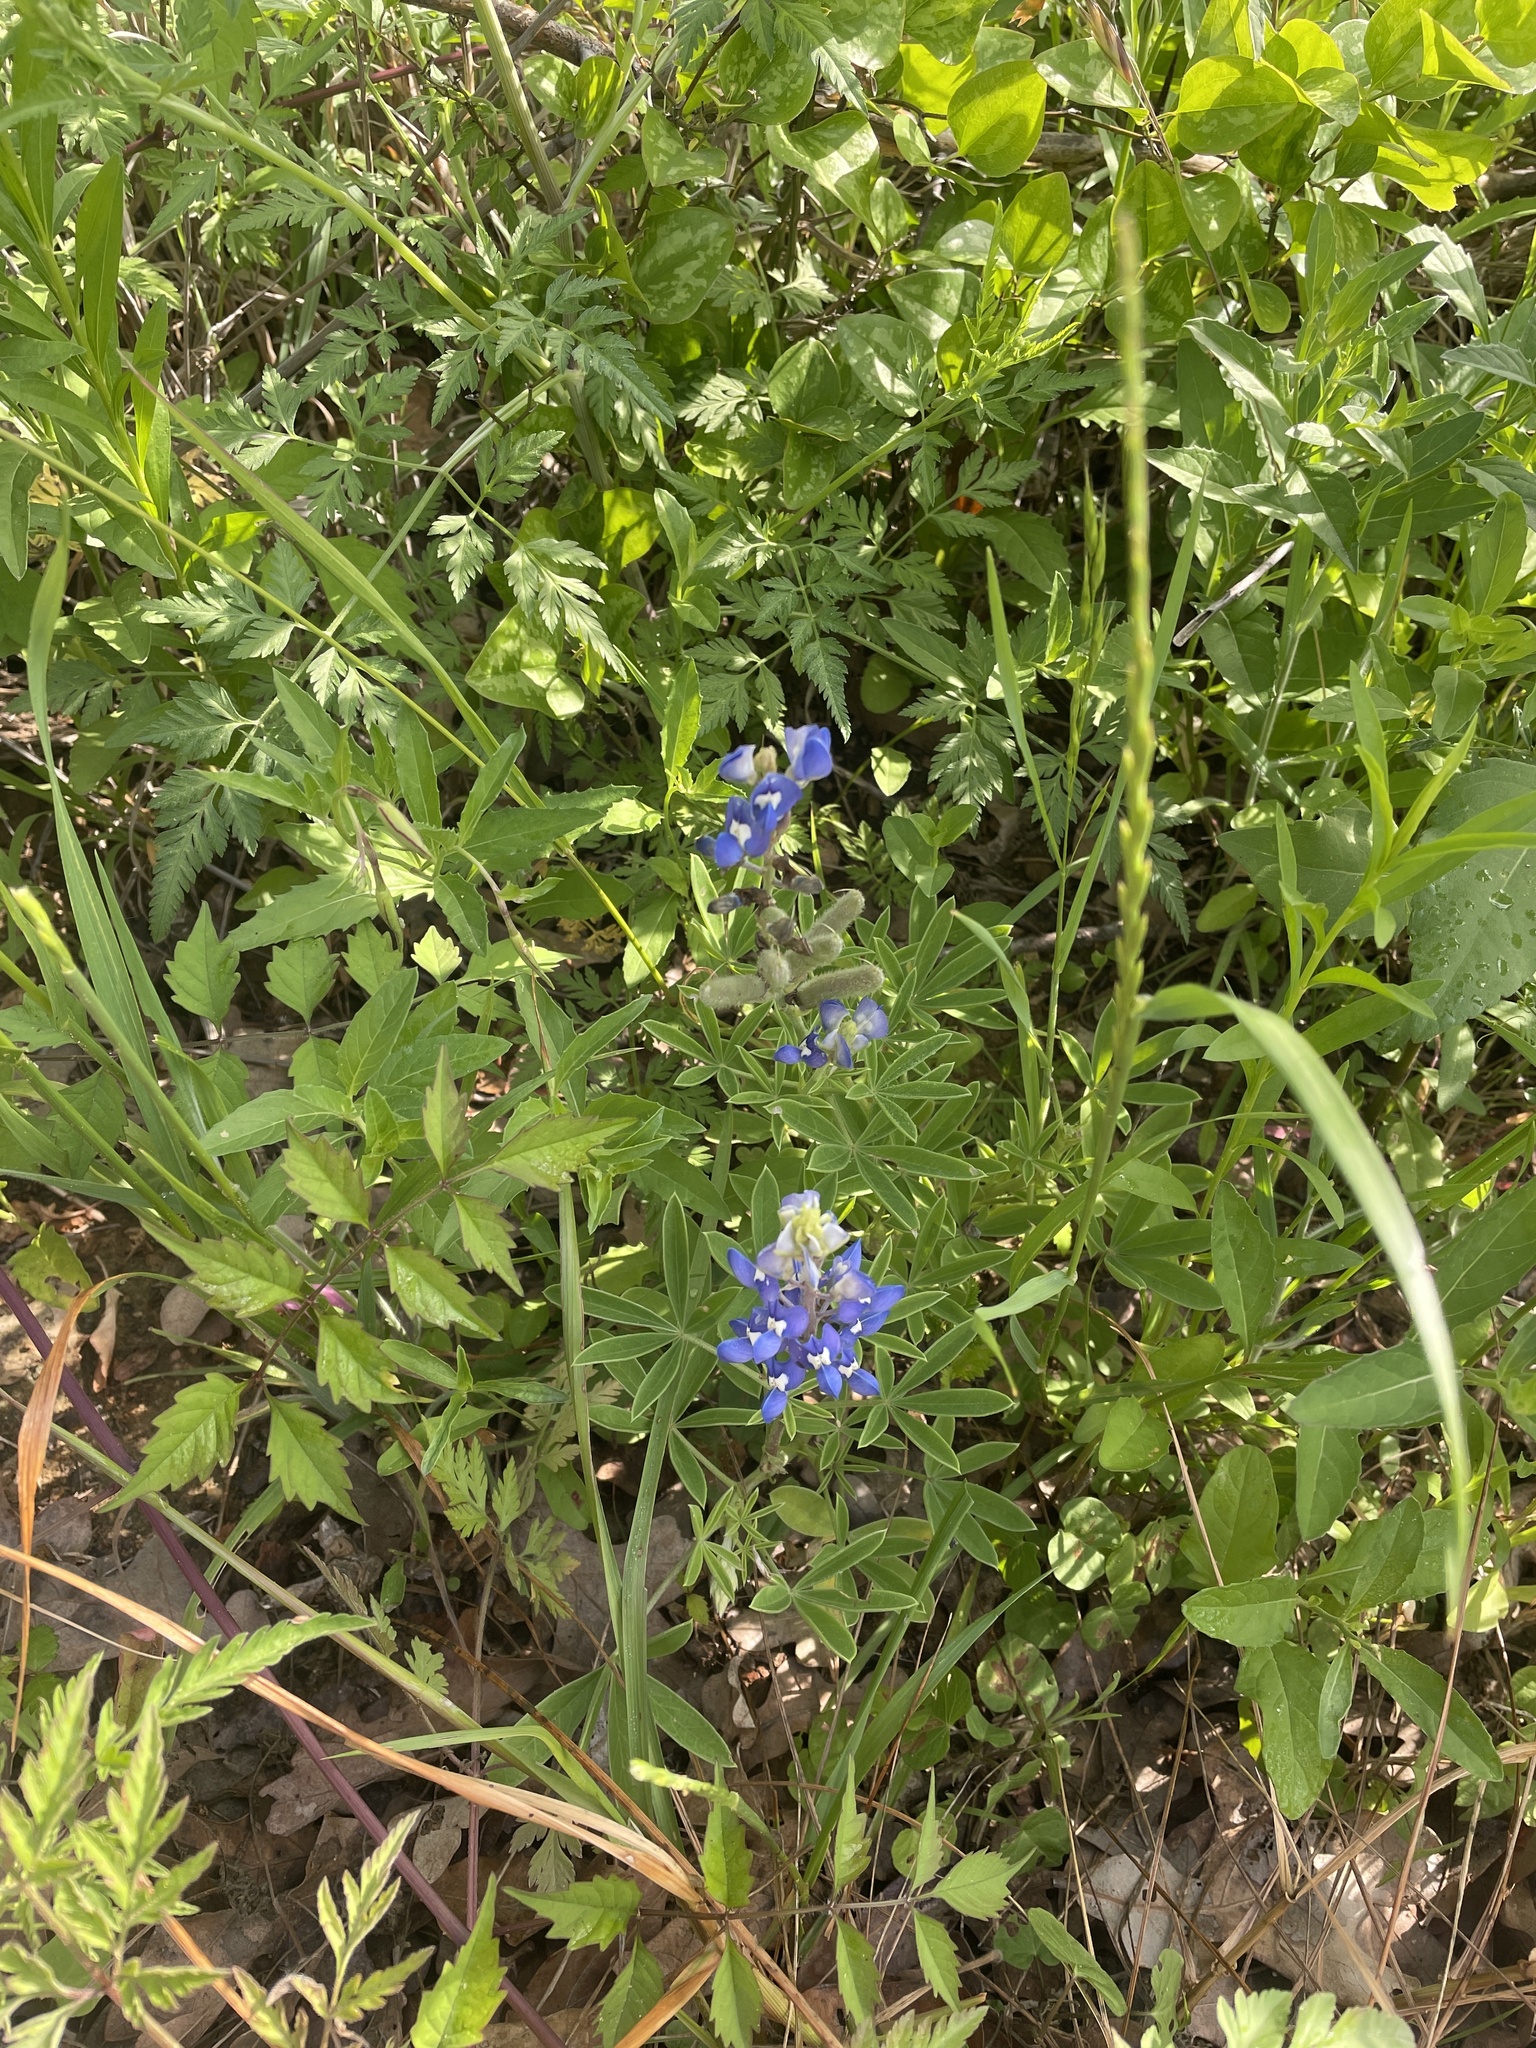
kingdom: Plantae
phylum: Tracheophyta
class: Magnoliopsida
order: Fabales
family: Fabaceae
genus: Lupinus
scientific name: Lupinus texensis
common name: Texas bluebonnet
